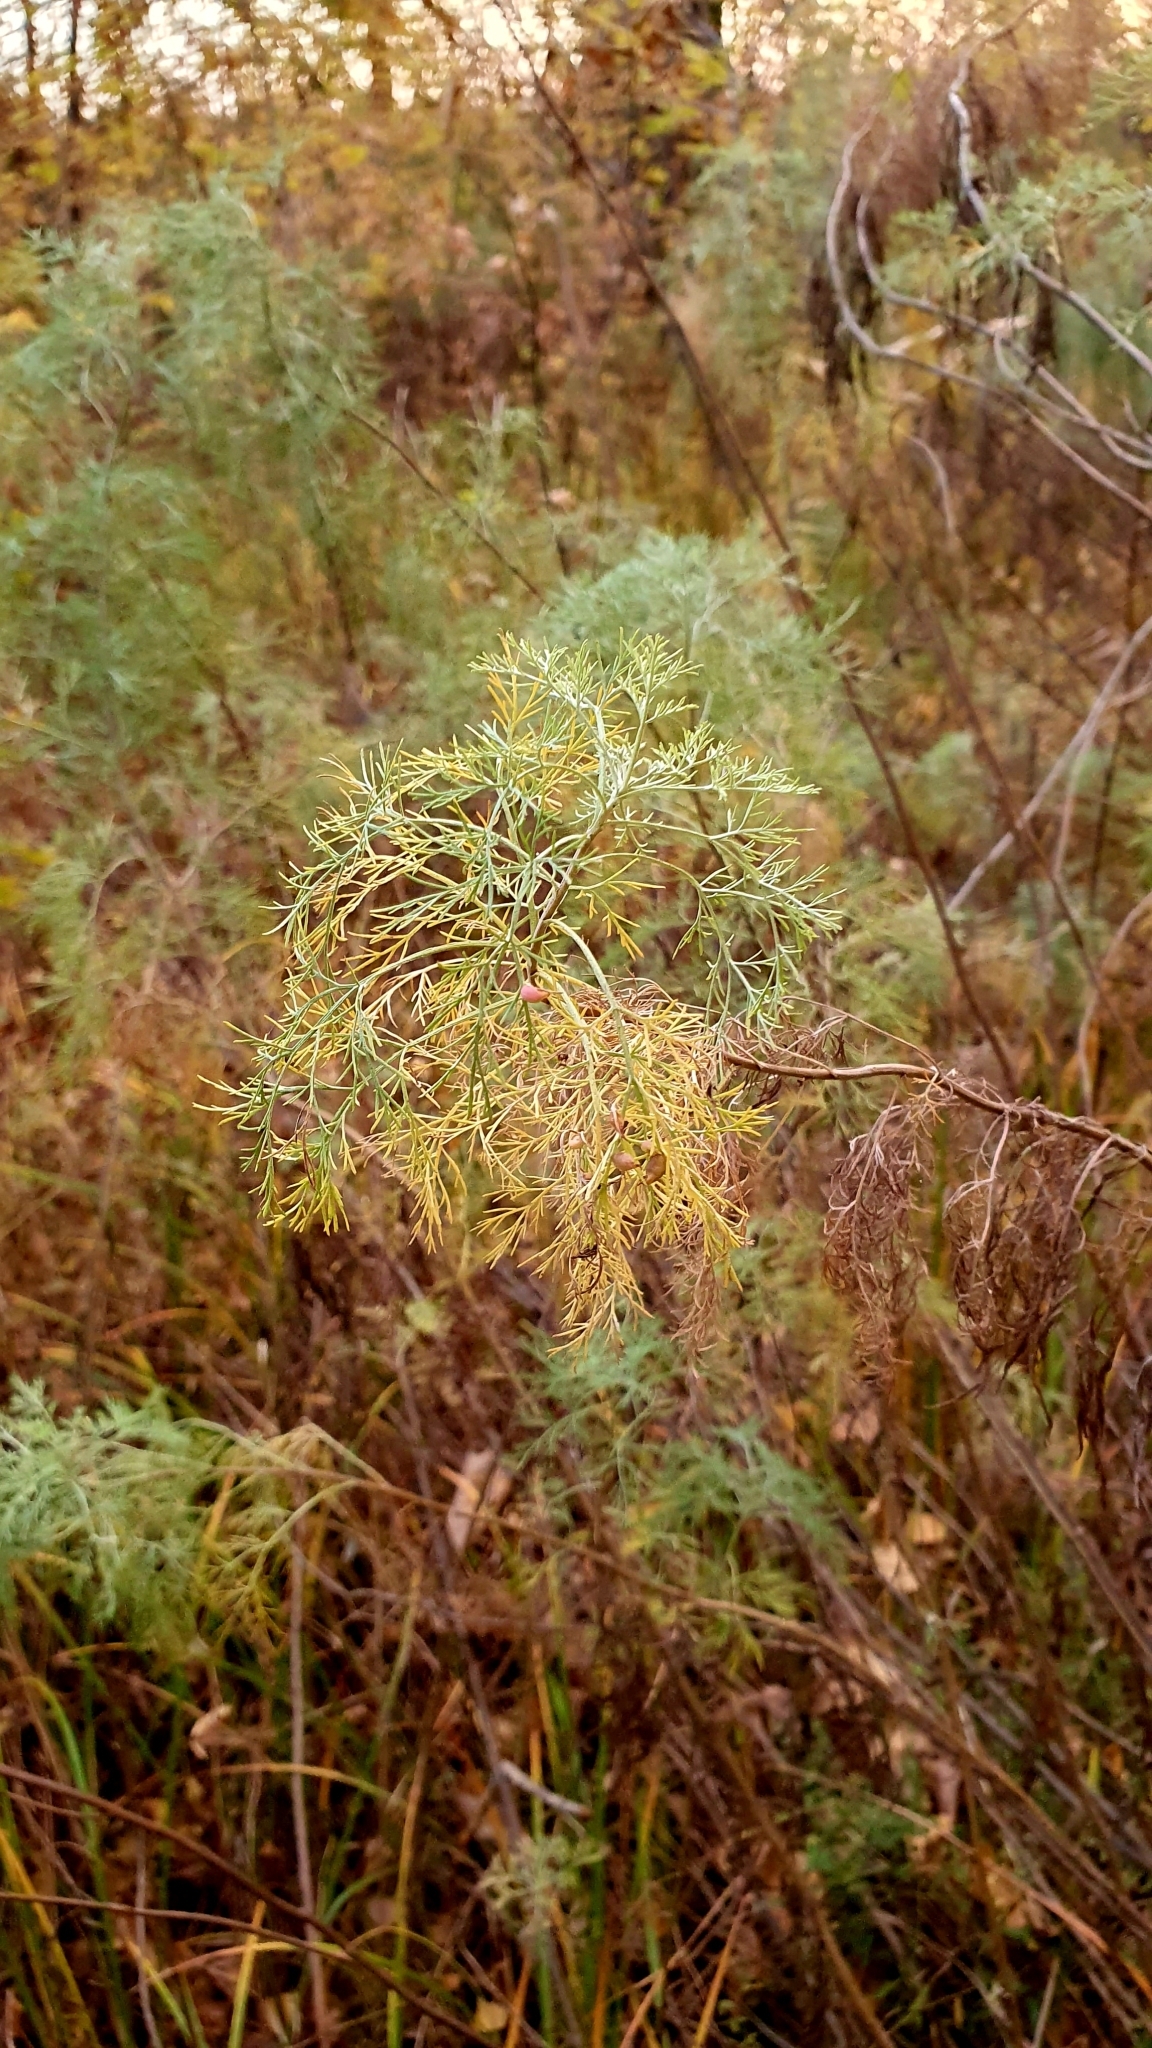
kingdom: Plantae
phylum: Tracheophyta
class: Magnoliopsida
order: Asterales
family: Asteraceae
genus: Artemisia
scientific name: Artemisia abrotanum
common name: Southernwood
